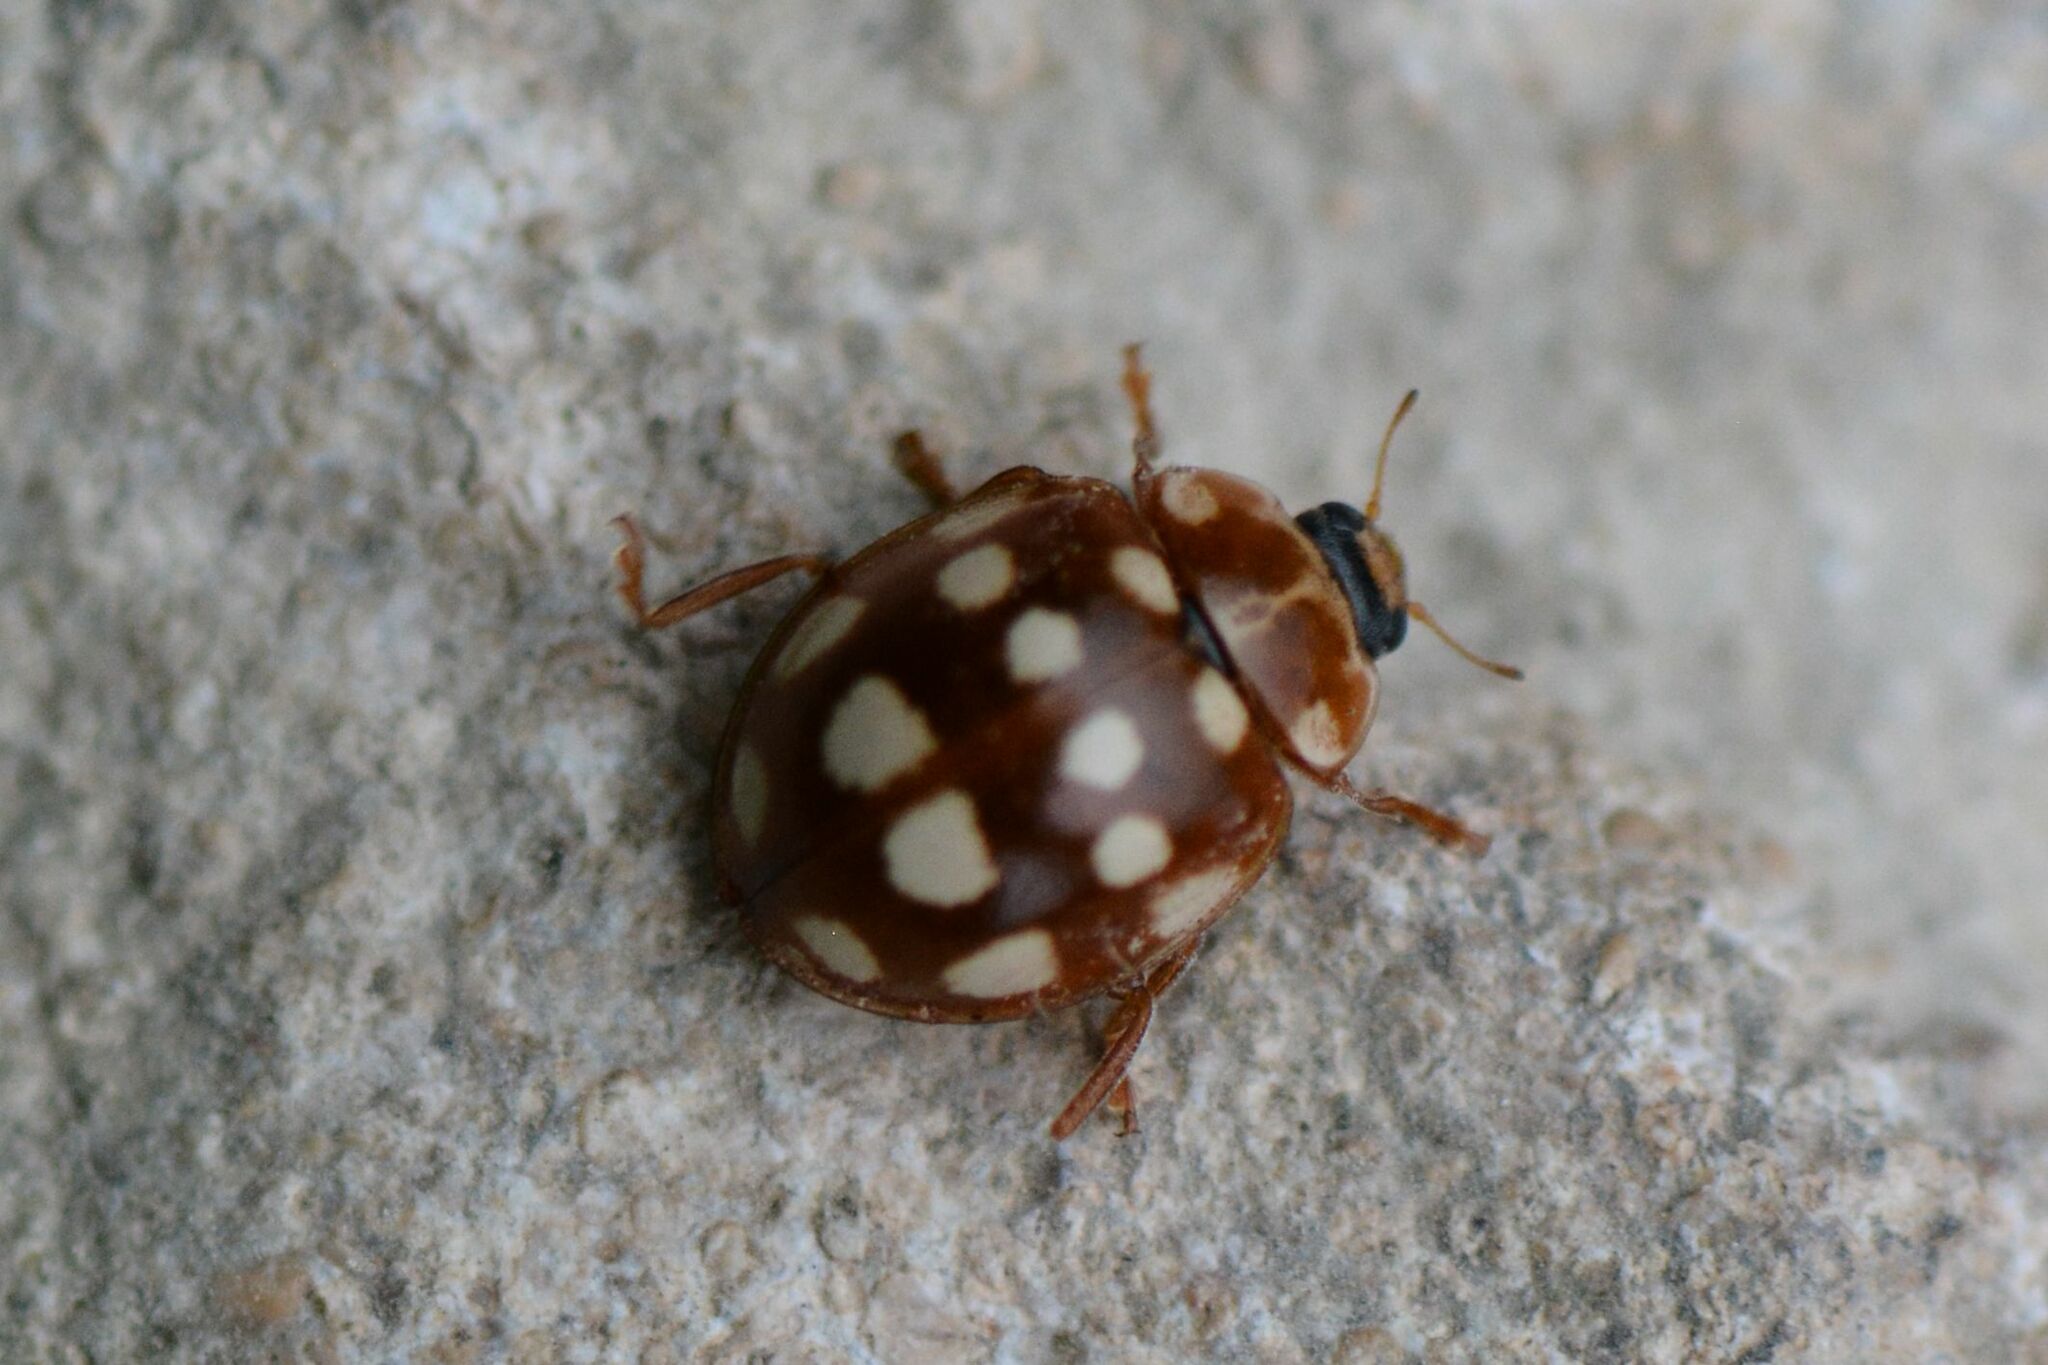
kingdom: Animalia
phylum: Arthropoda
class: Insecta
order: Coleoptera
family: Coccinellidae
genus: Calvia
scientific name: Calvia quatuordecimguttata
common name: Cream-spot ladybird
